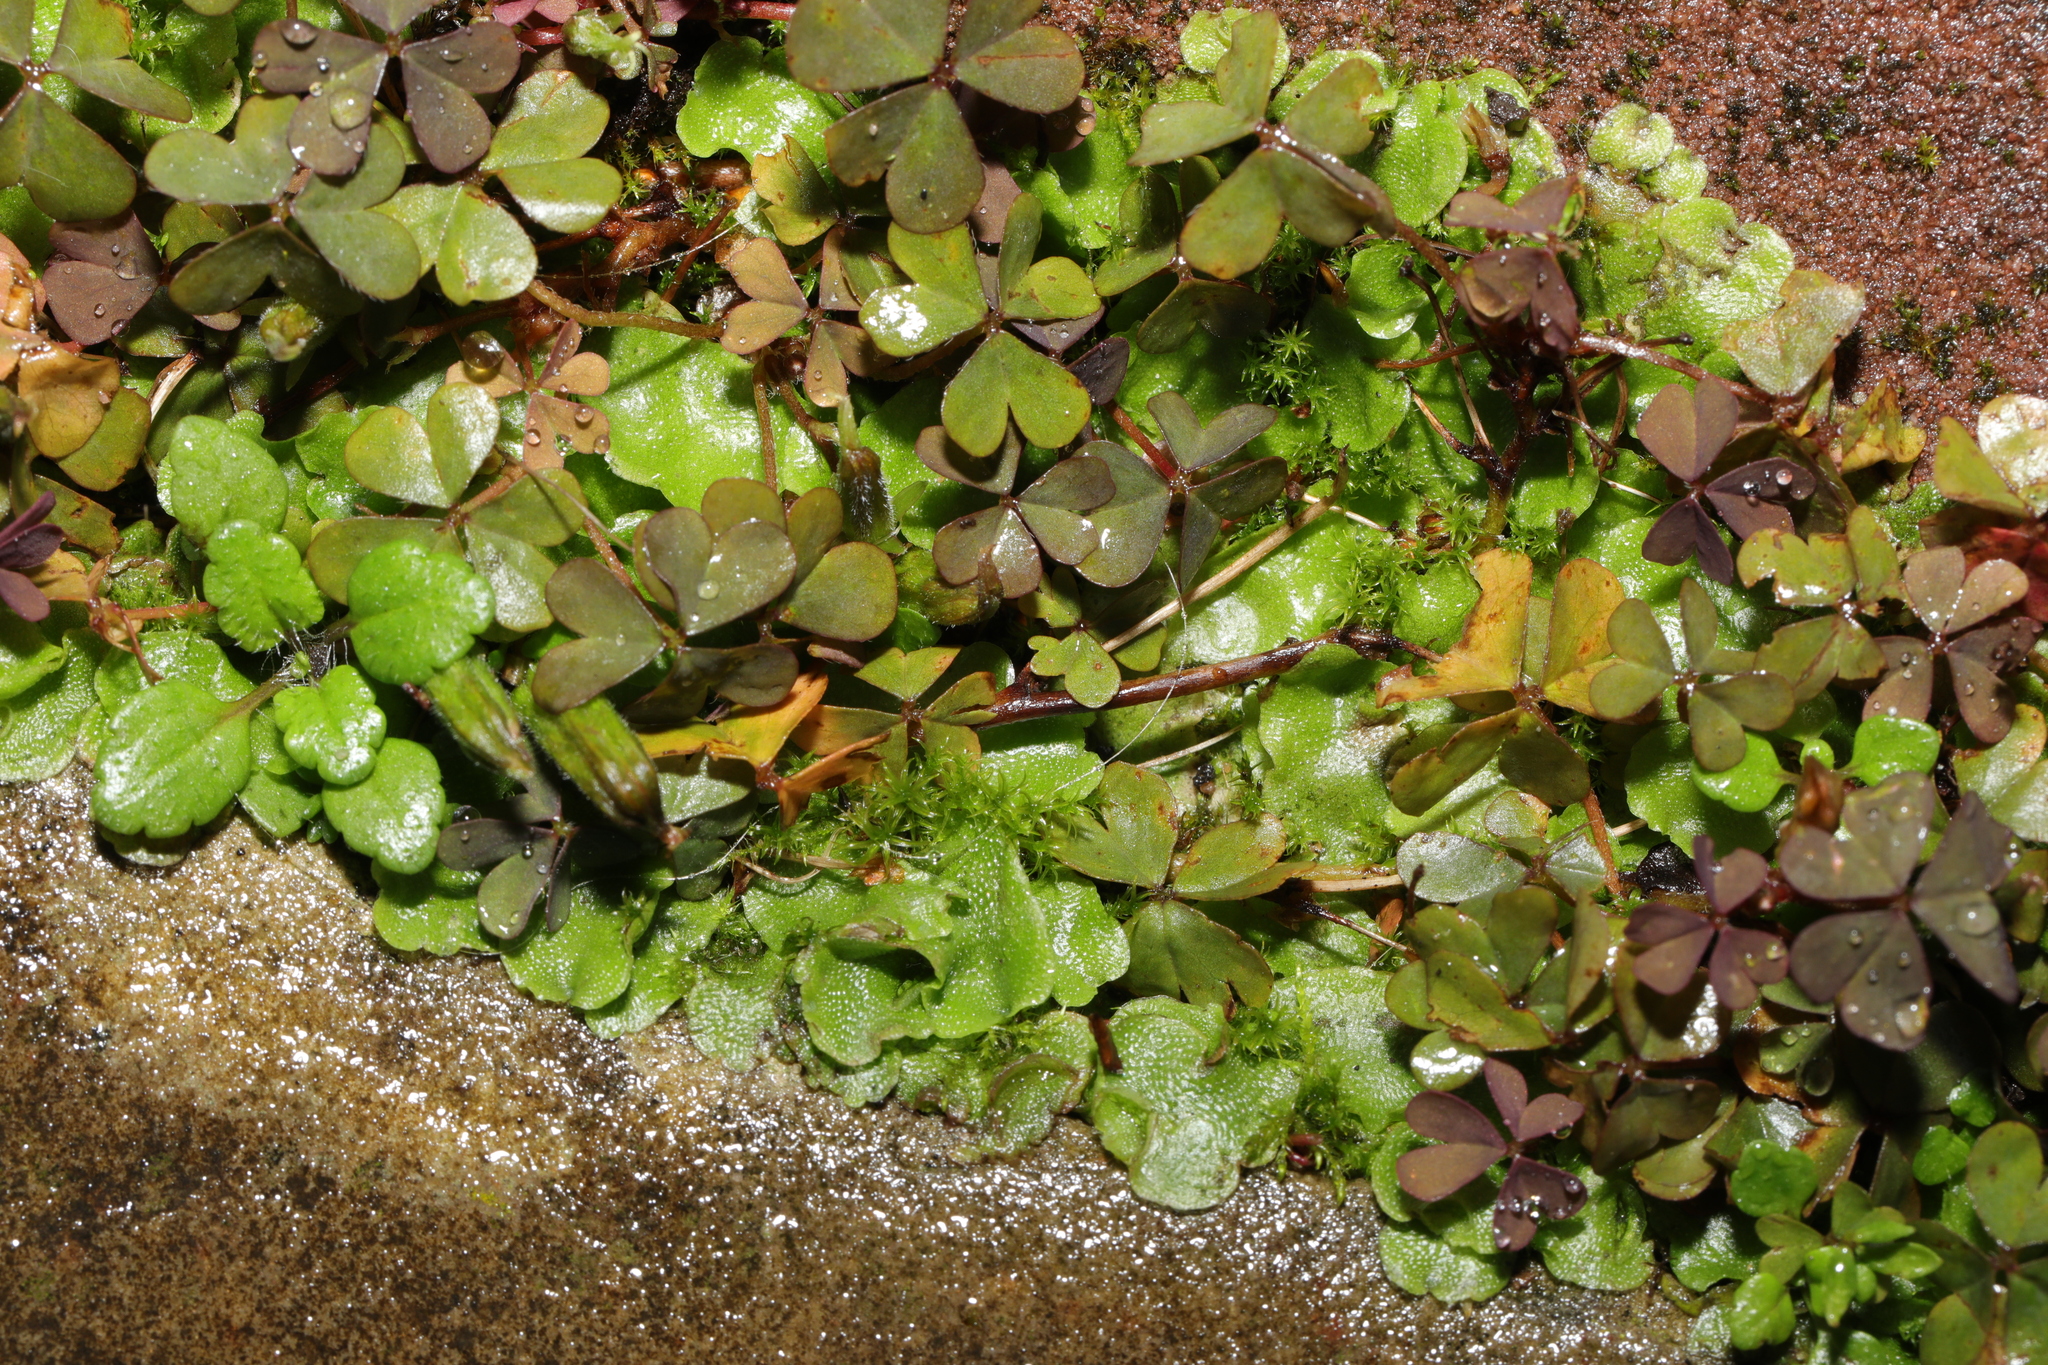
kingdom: Plantae
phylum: Tracheophyta
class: Magnoliopsida
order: Oxalidales
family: Oxalidaceae
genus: Oxalis
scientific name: Oxalis corniculata
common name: Procumbent yellow-sorrel
